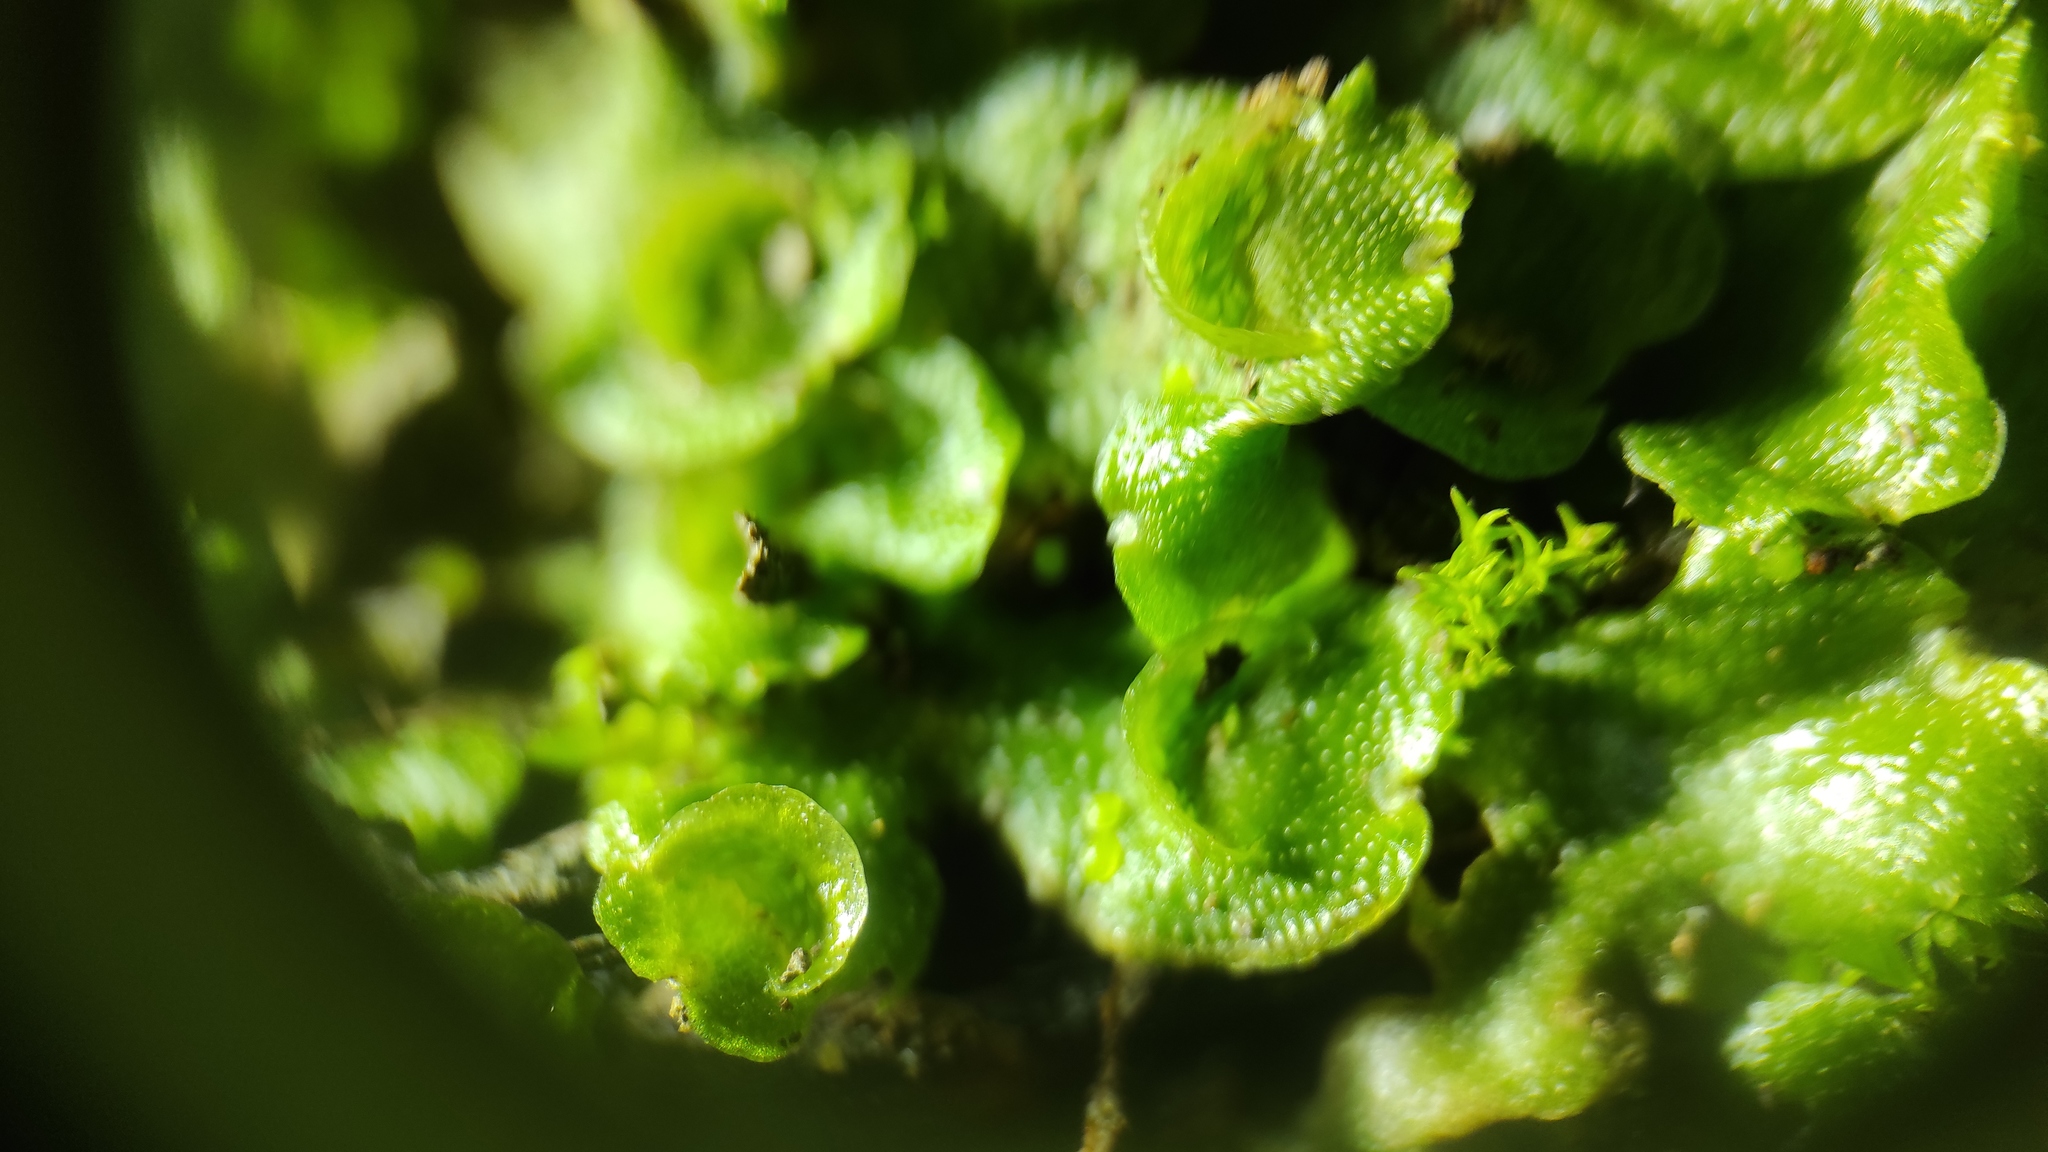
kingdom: Plantae
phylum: Marchantiophyta
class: Marchantiopsida
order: Lunulariales
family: Lunulariaceae
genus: Lunularia
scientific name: Lunularia cruciata
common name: Crescent-cup liverwort
